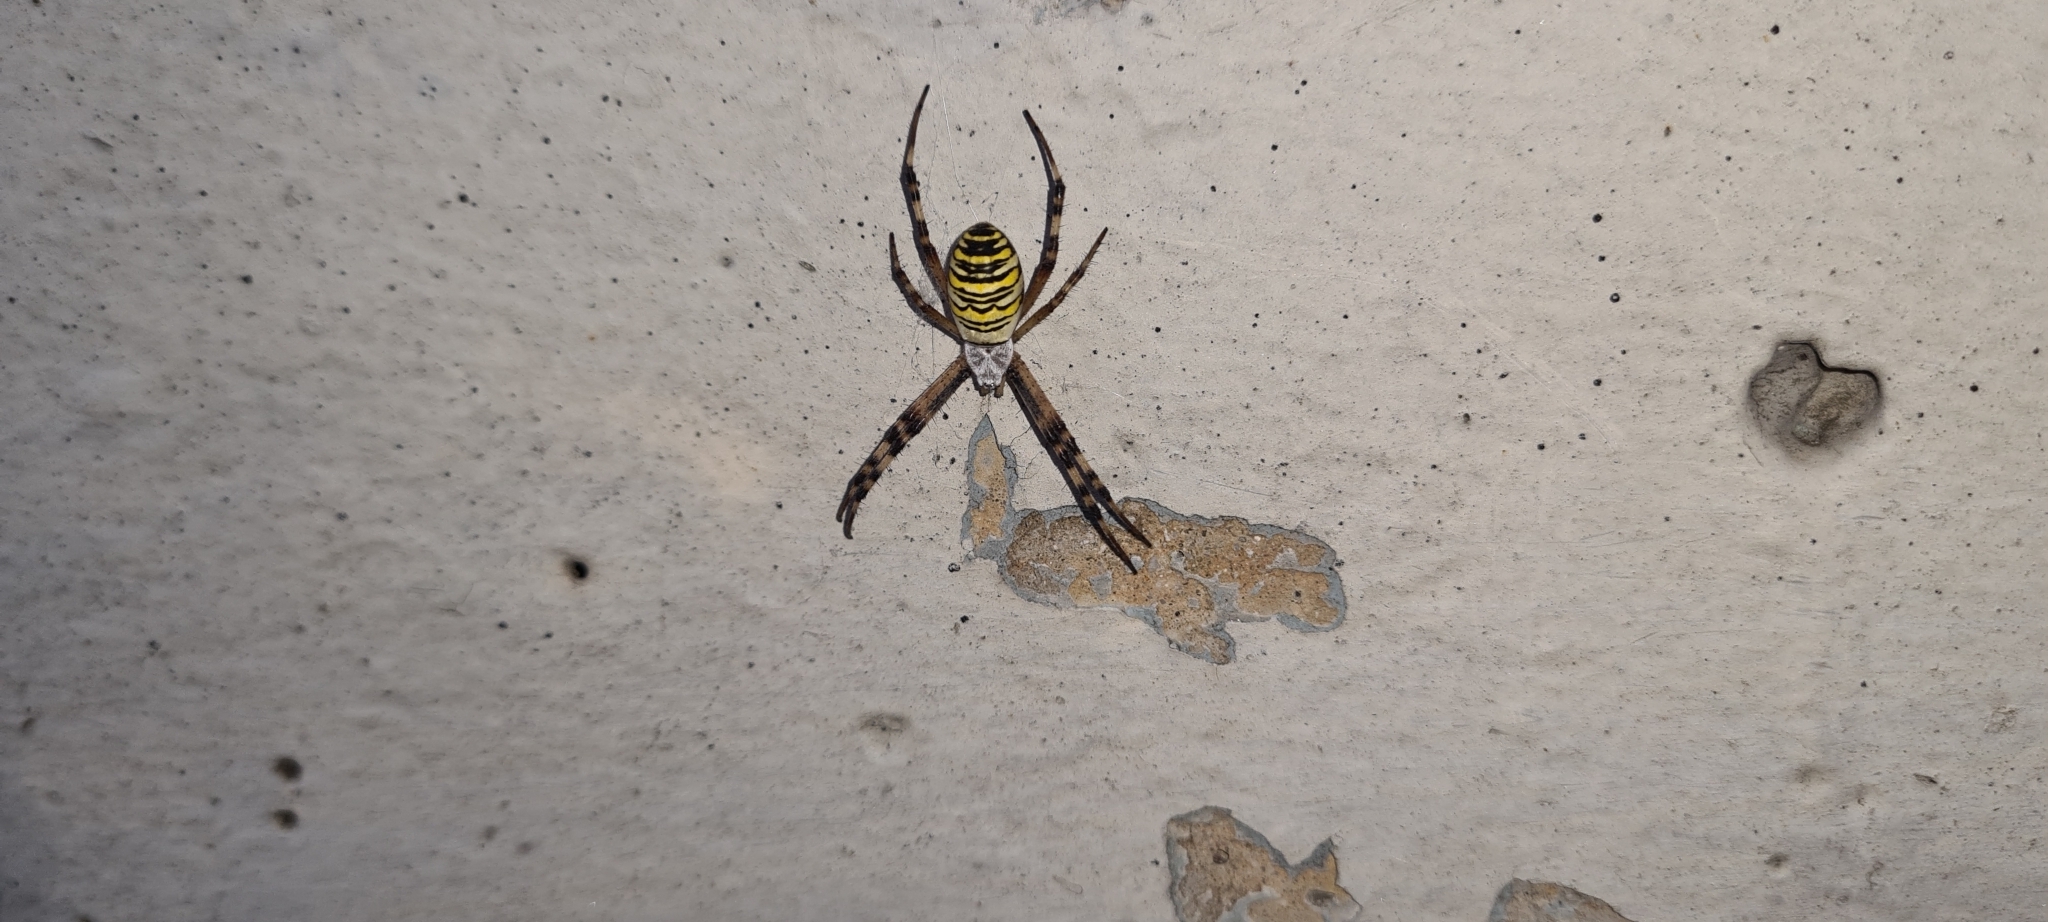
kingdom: Animalia
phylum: Arthropoda
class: Arachnida
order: Araneae
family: Araneidae
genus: Argiope
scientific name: Argiope bruennichi
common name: Wasp spider
